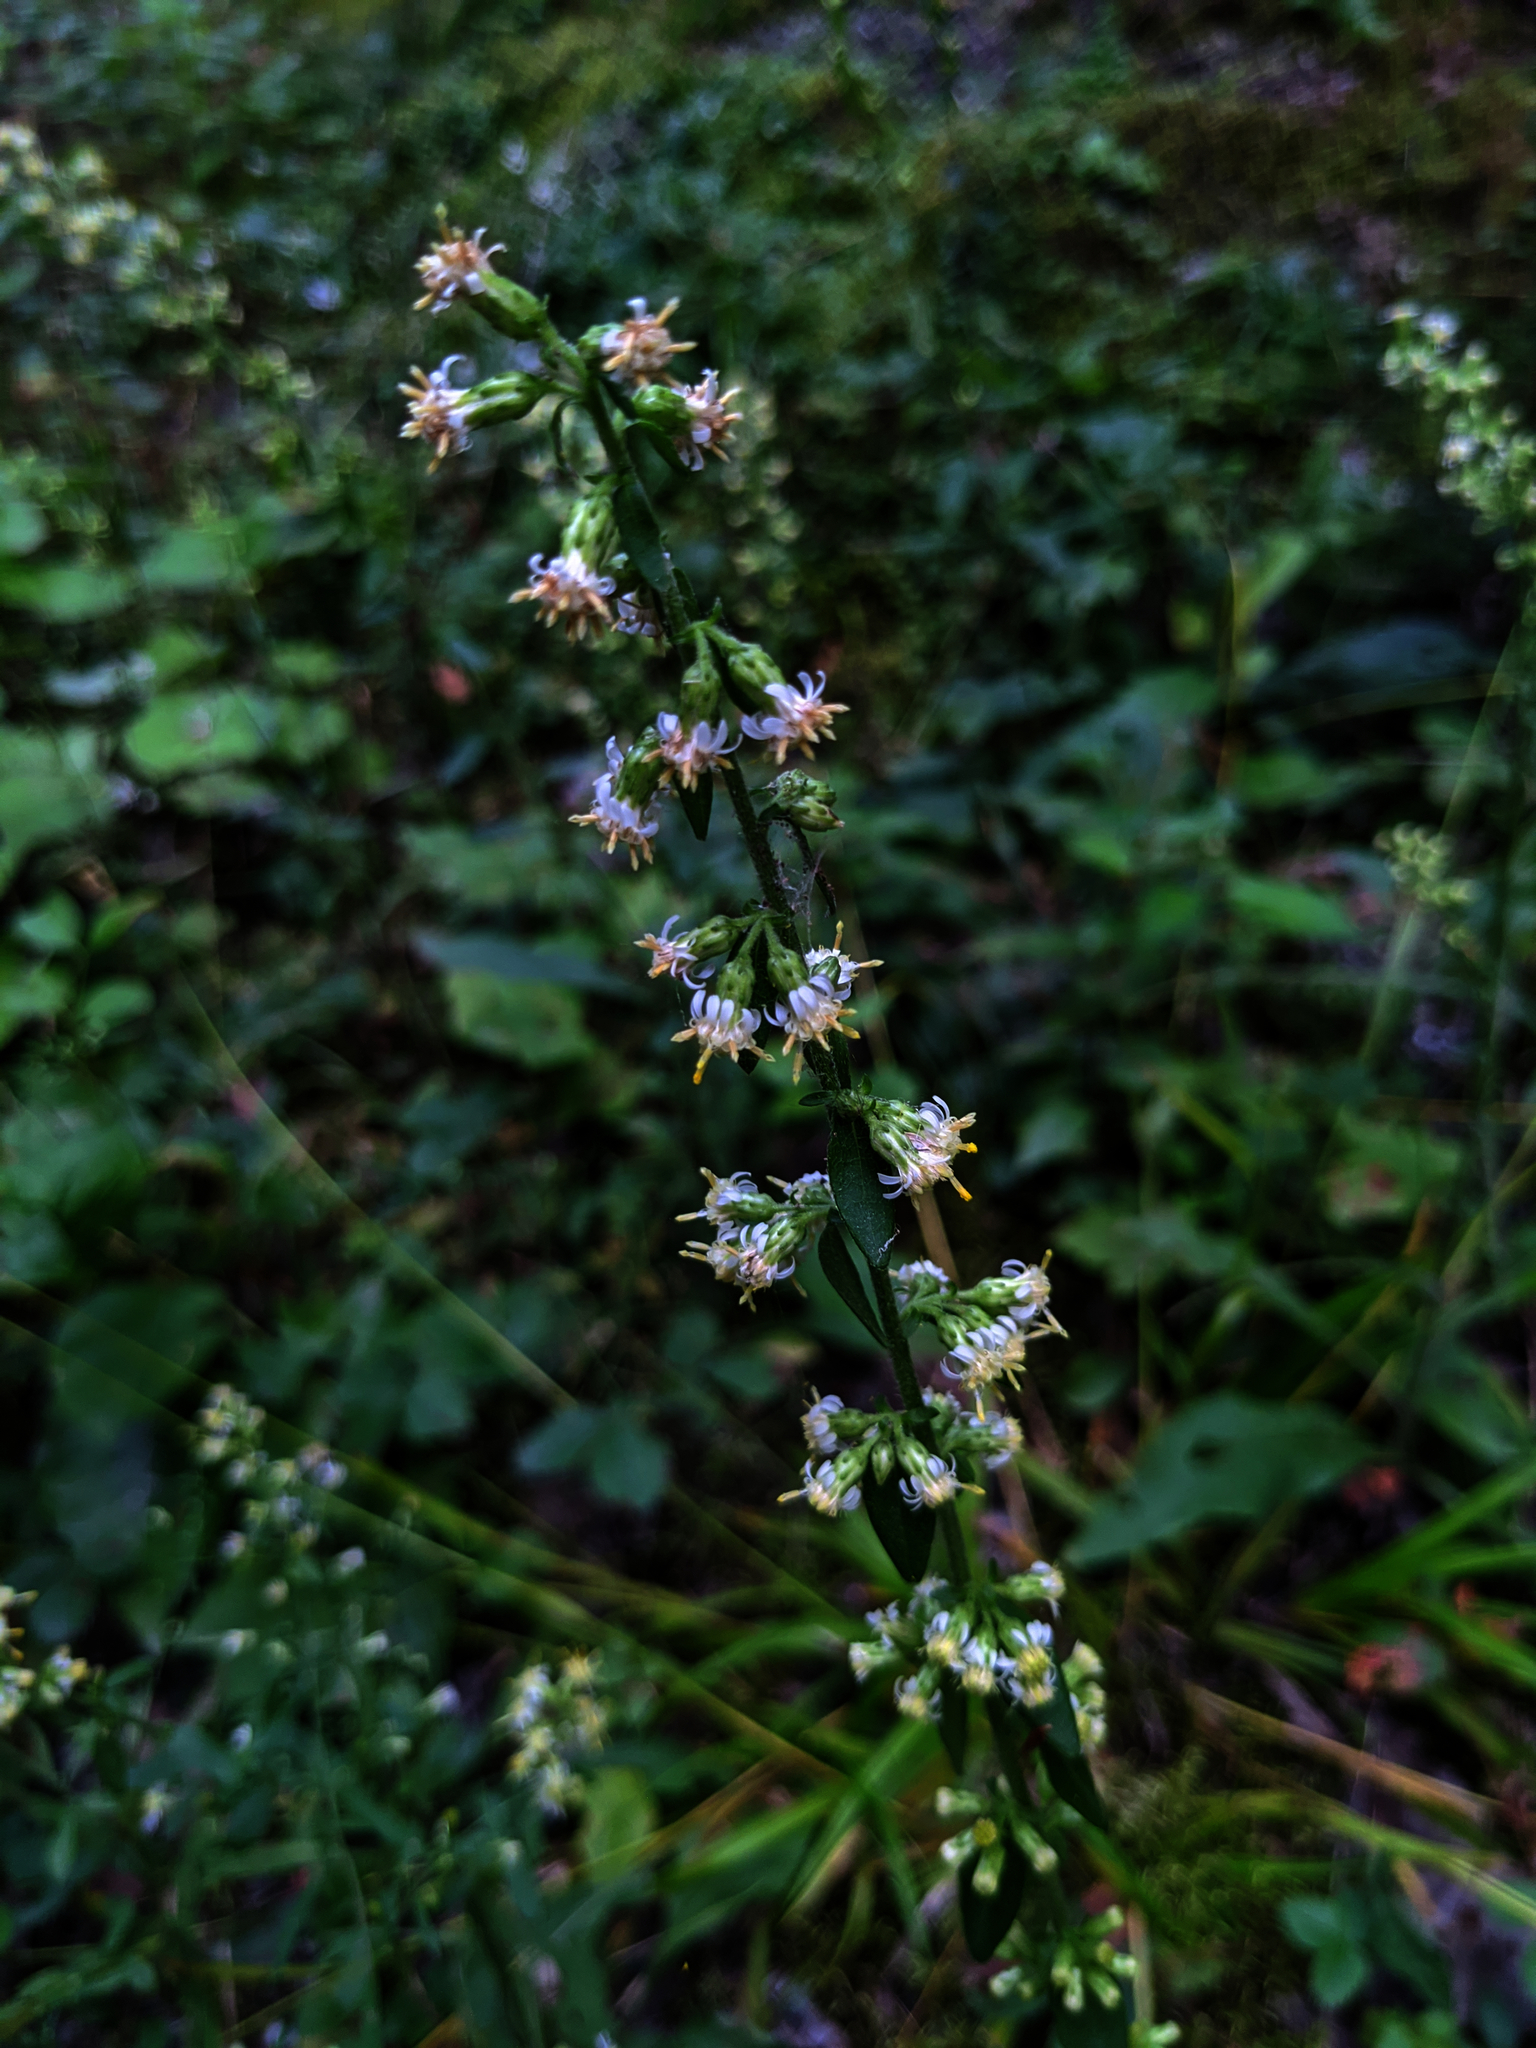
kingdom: Plantae
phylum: Tracheophyta
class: Magnoliopsida
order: Asterales
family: Asteraceae
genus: Solidago
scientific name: Solidago bicolor
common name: Silverrod
